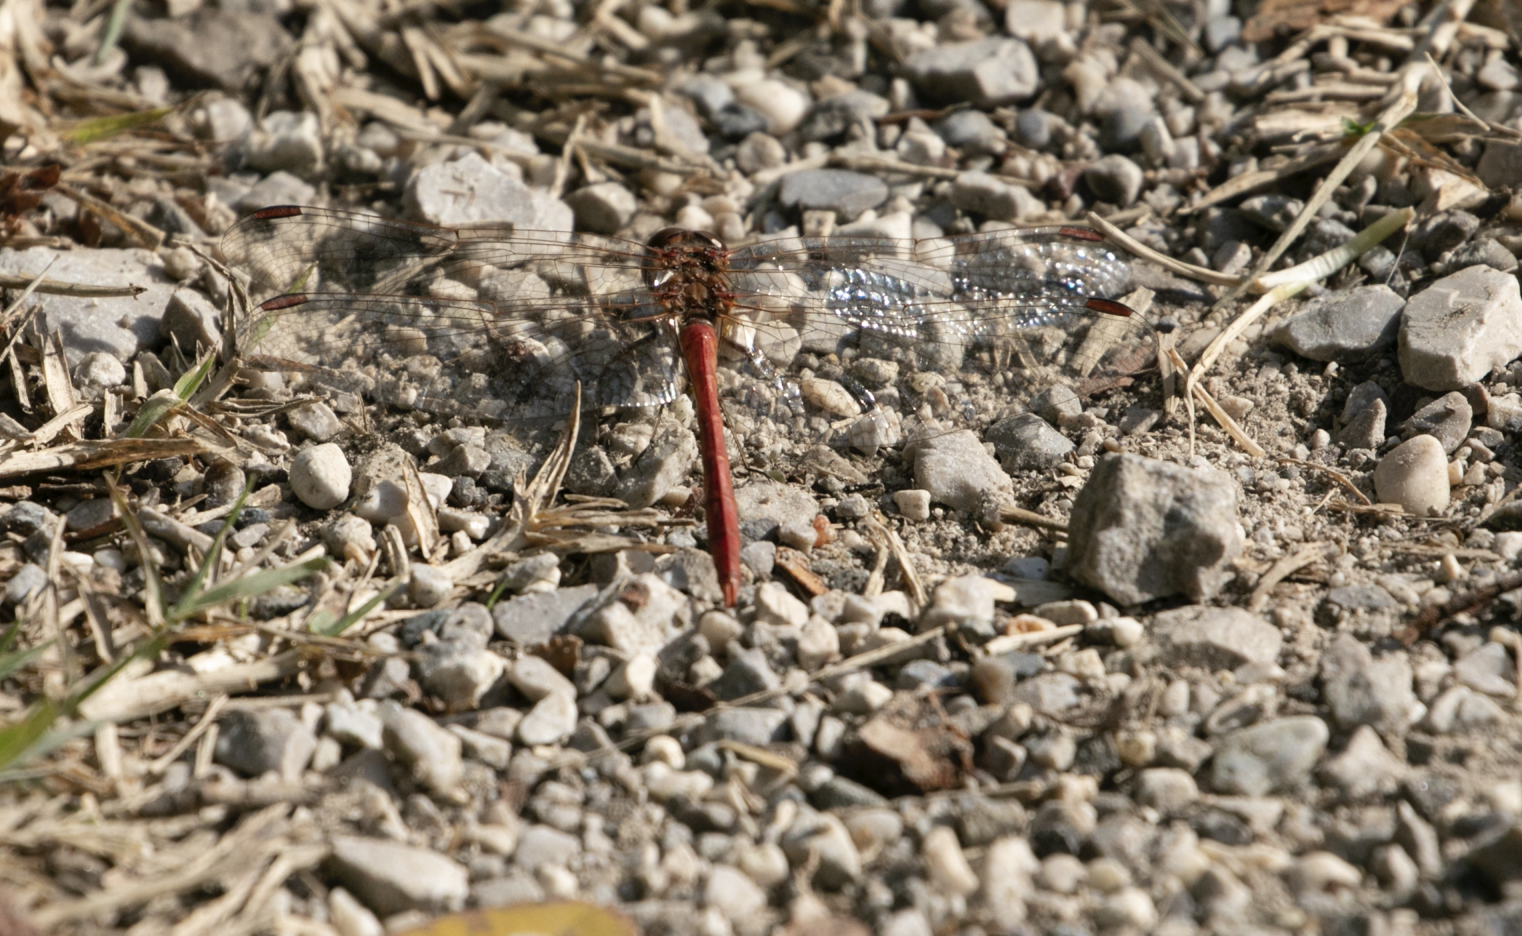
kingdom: Animalia
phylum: Arthropoda
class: Insecta
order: Odonata
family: Libellulidae
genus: Sympetrum
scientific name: Sympetrum meridionale
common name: Southern darter
